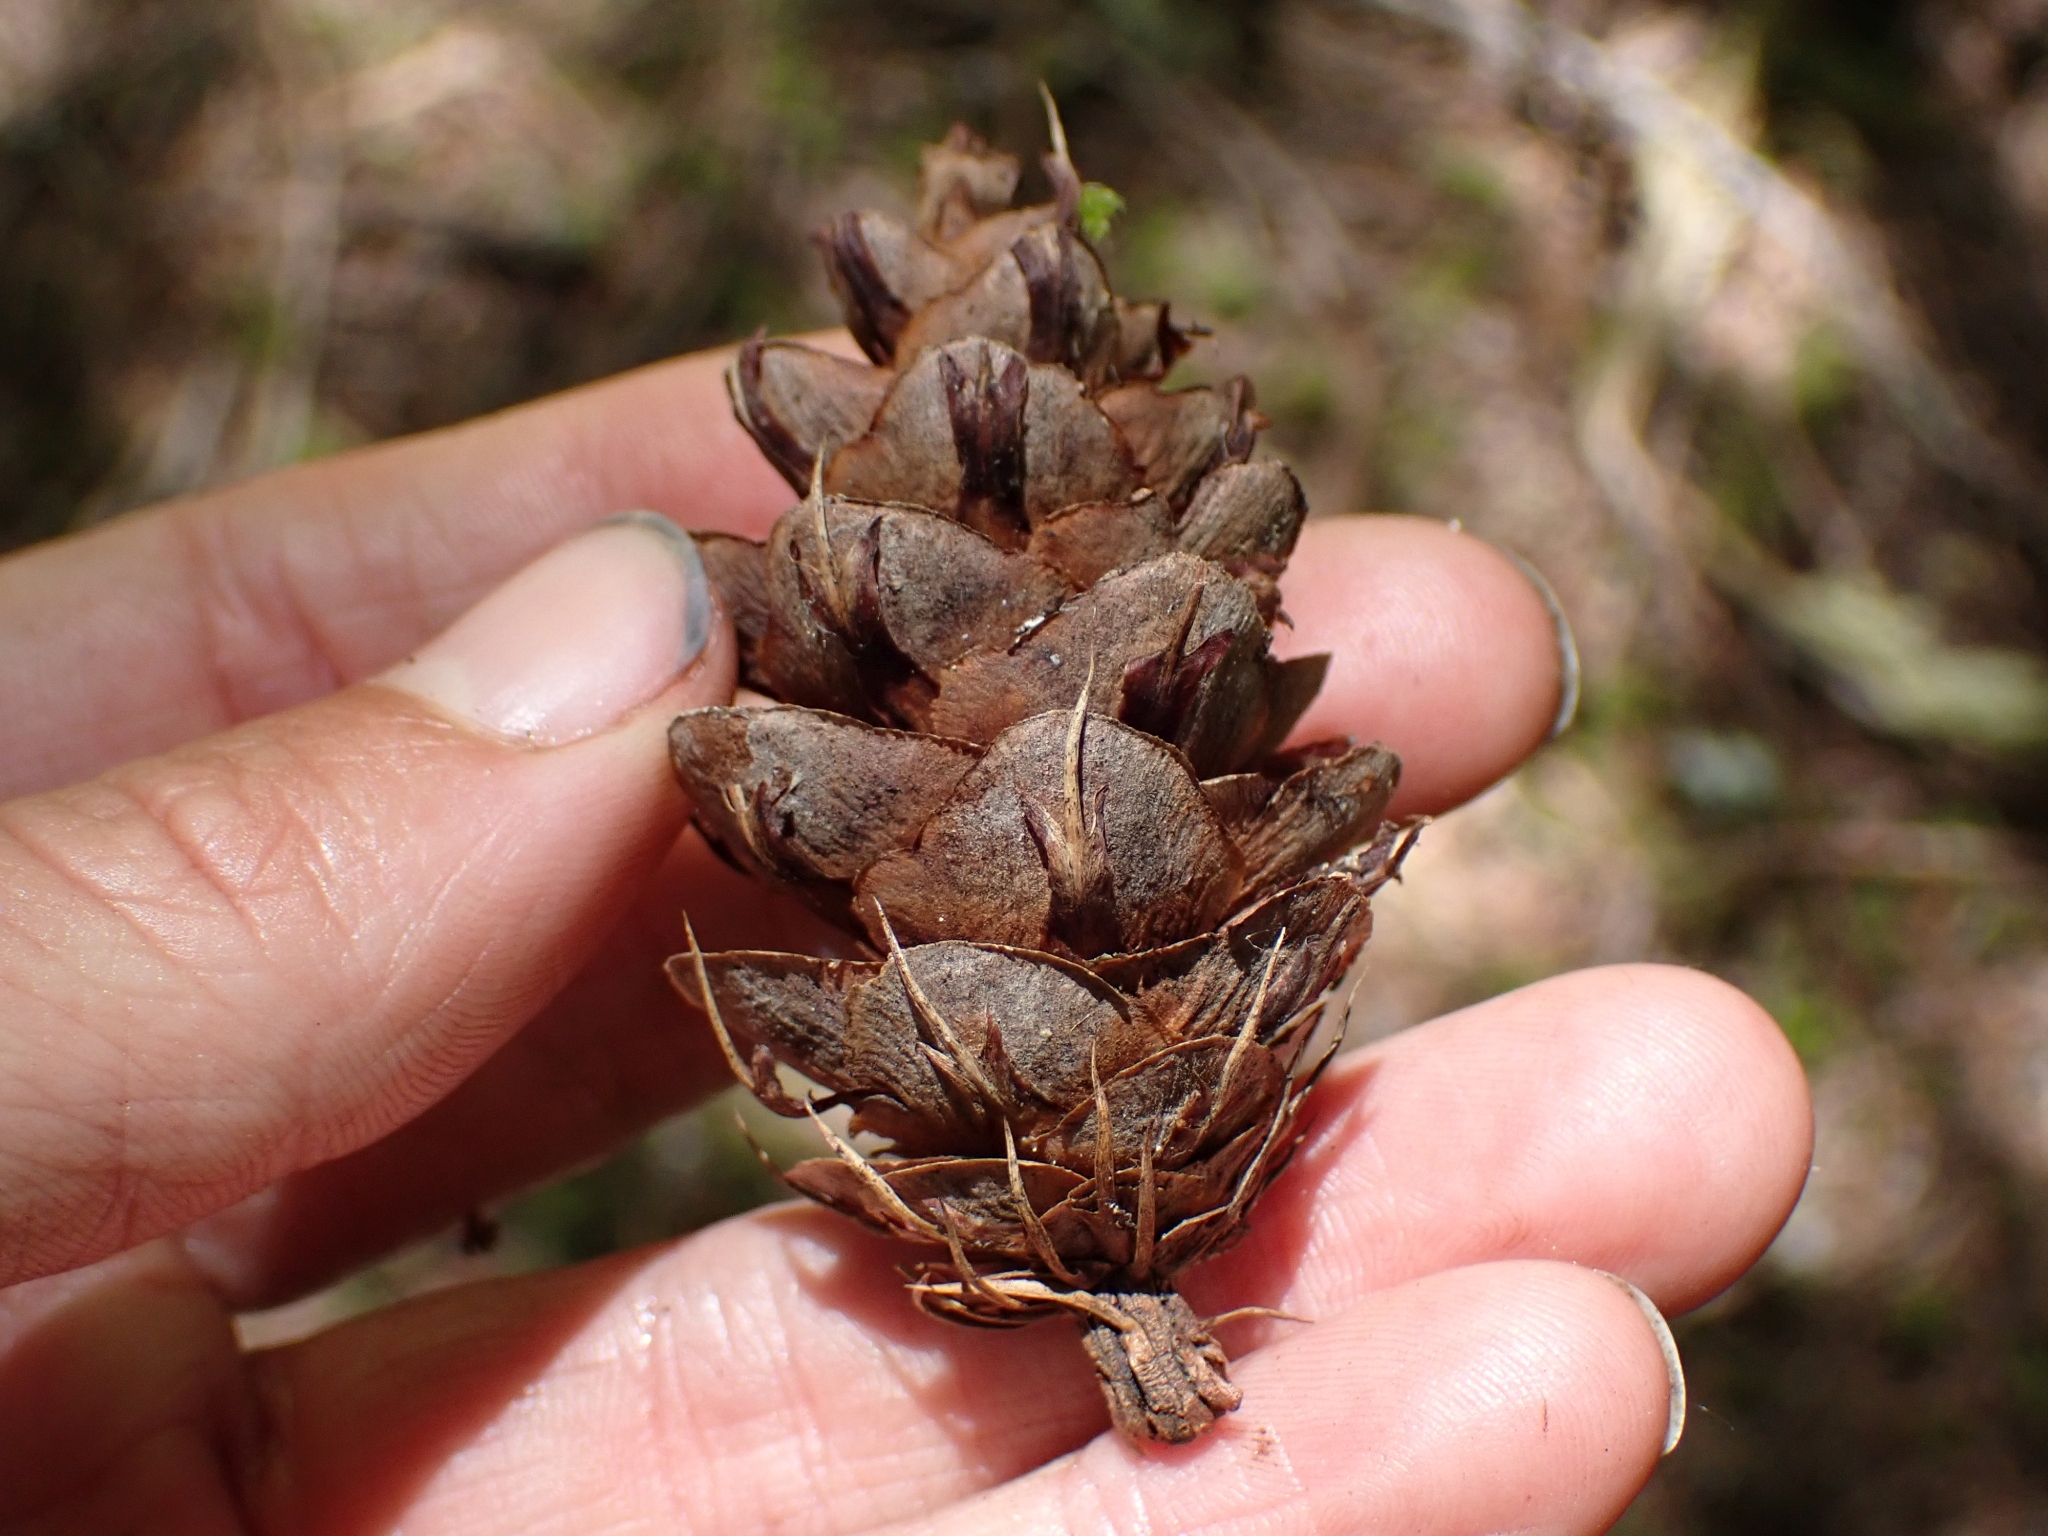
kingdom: Plantae
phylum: Tracheophyta
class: Pinopsida
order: Pinales
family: Pinaceae
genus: Pseudotsuga
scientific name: Pseudotsuga menziesii
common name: Douglas fir
